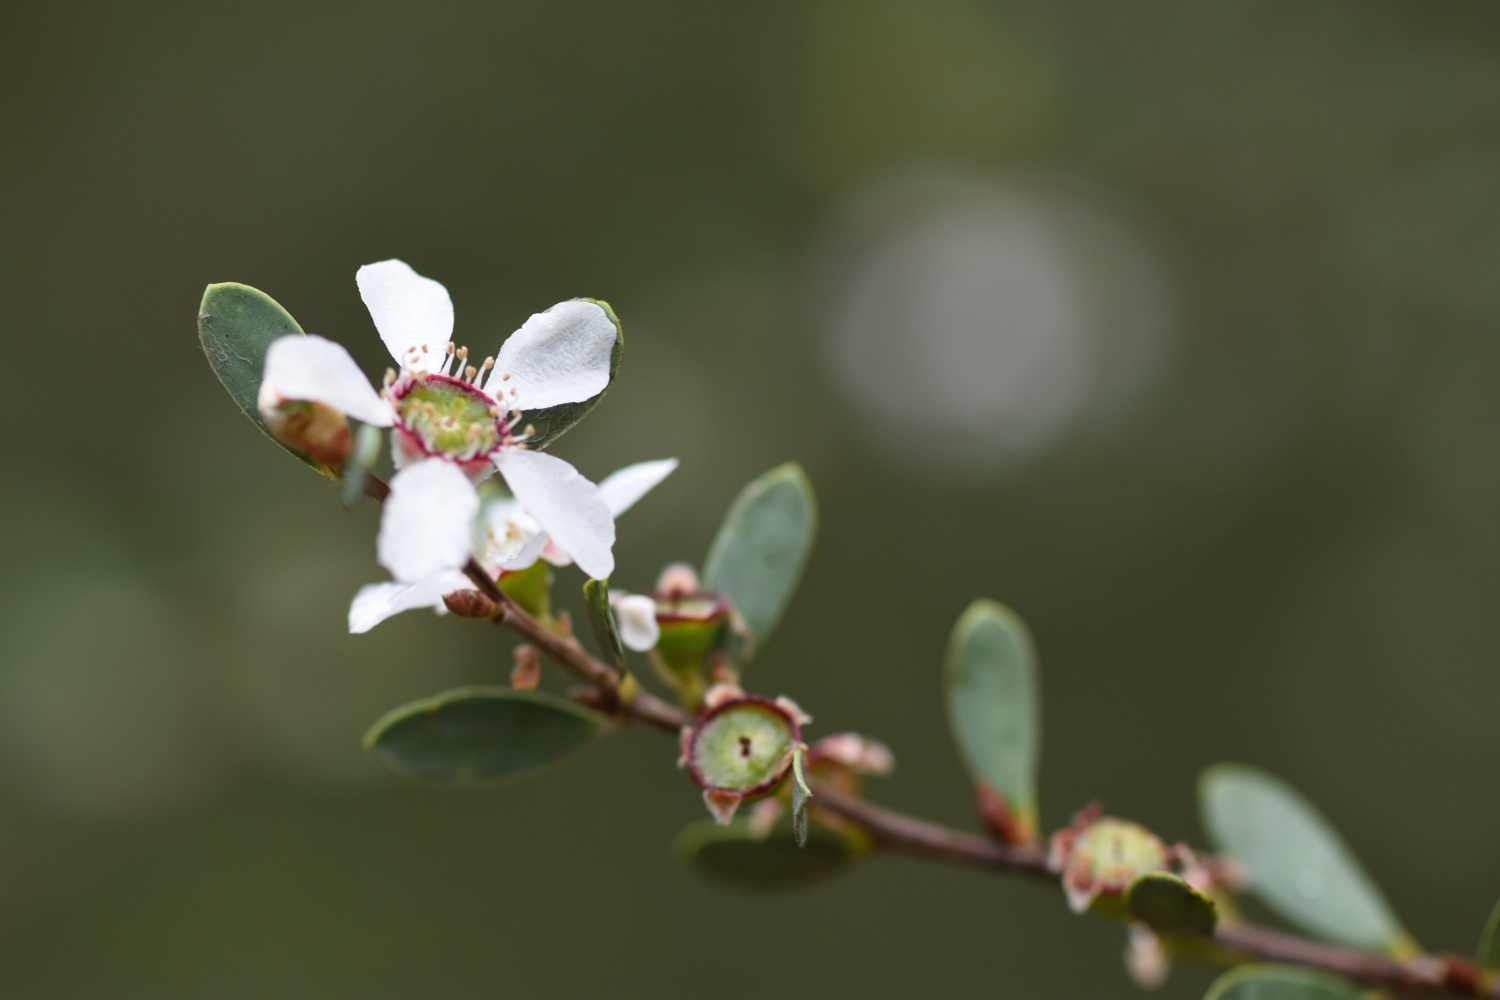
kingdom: Plantae
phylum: Tracheophyta
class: Magnoliopsida
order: Myrtales
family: Myrtaceae
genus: Leptospermum
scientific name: Leptospermum laevigatum
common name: Australian teatree
